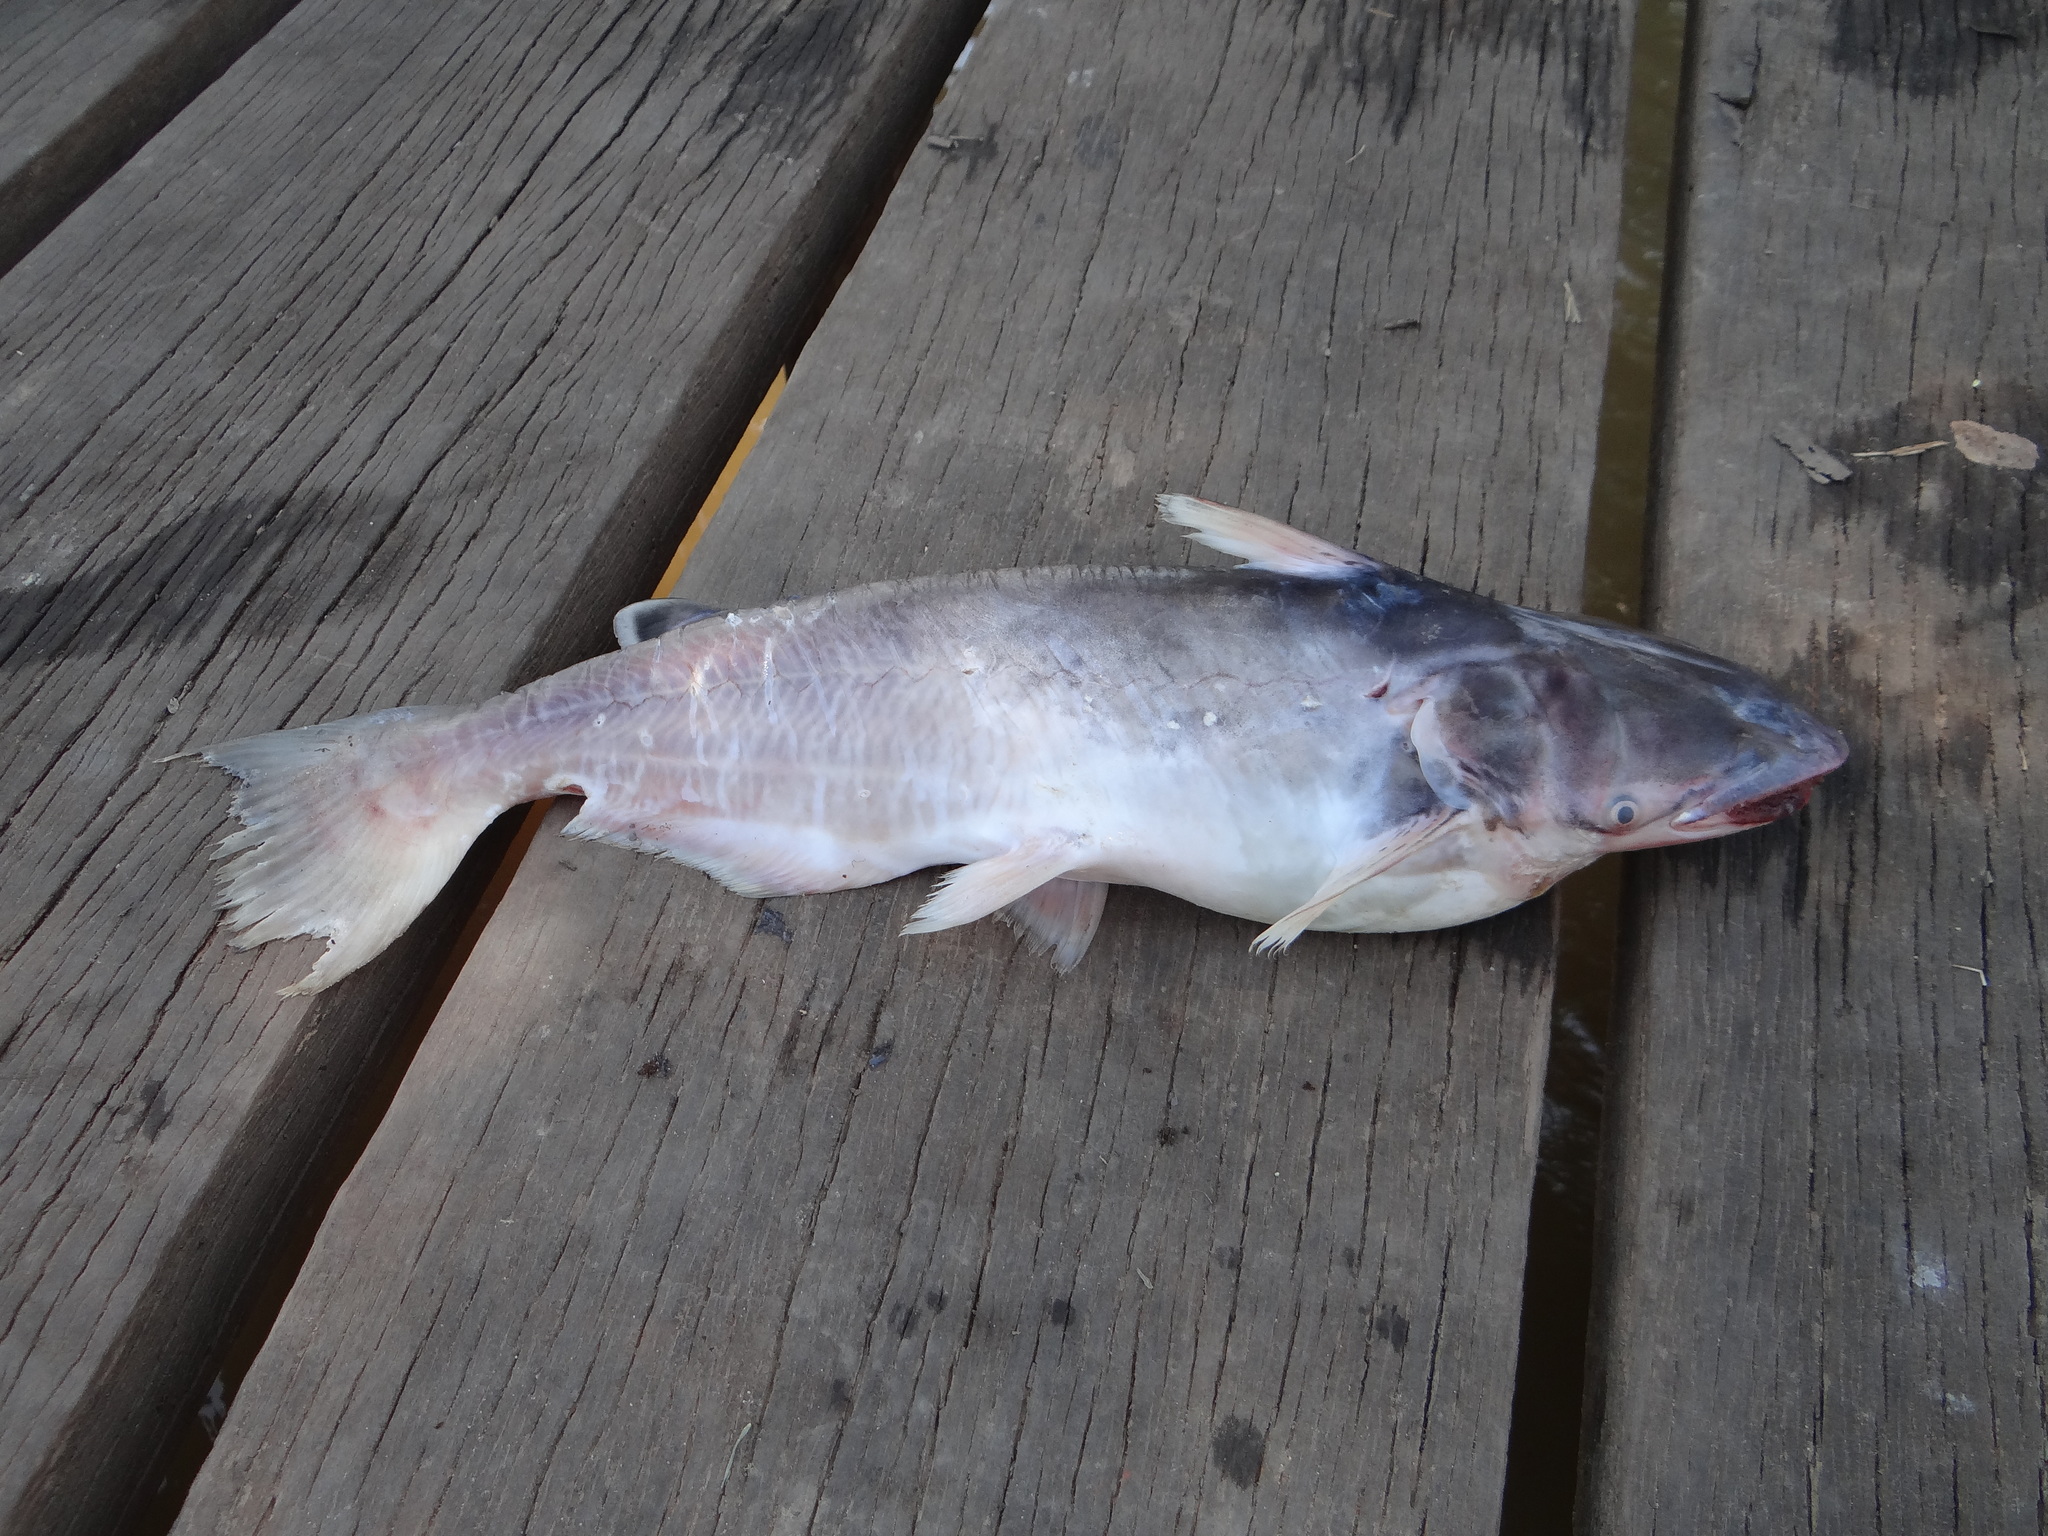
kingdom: Animalia
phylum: Chordata
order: Siluriformes
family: Auchenipteridae
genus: Ageneiosus
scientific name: Ageneiosus inermis
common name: Manduba
